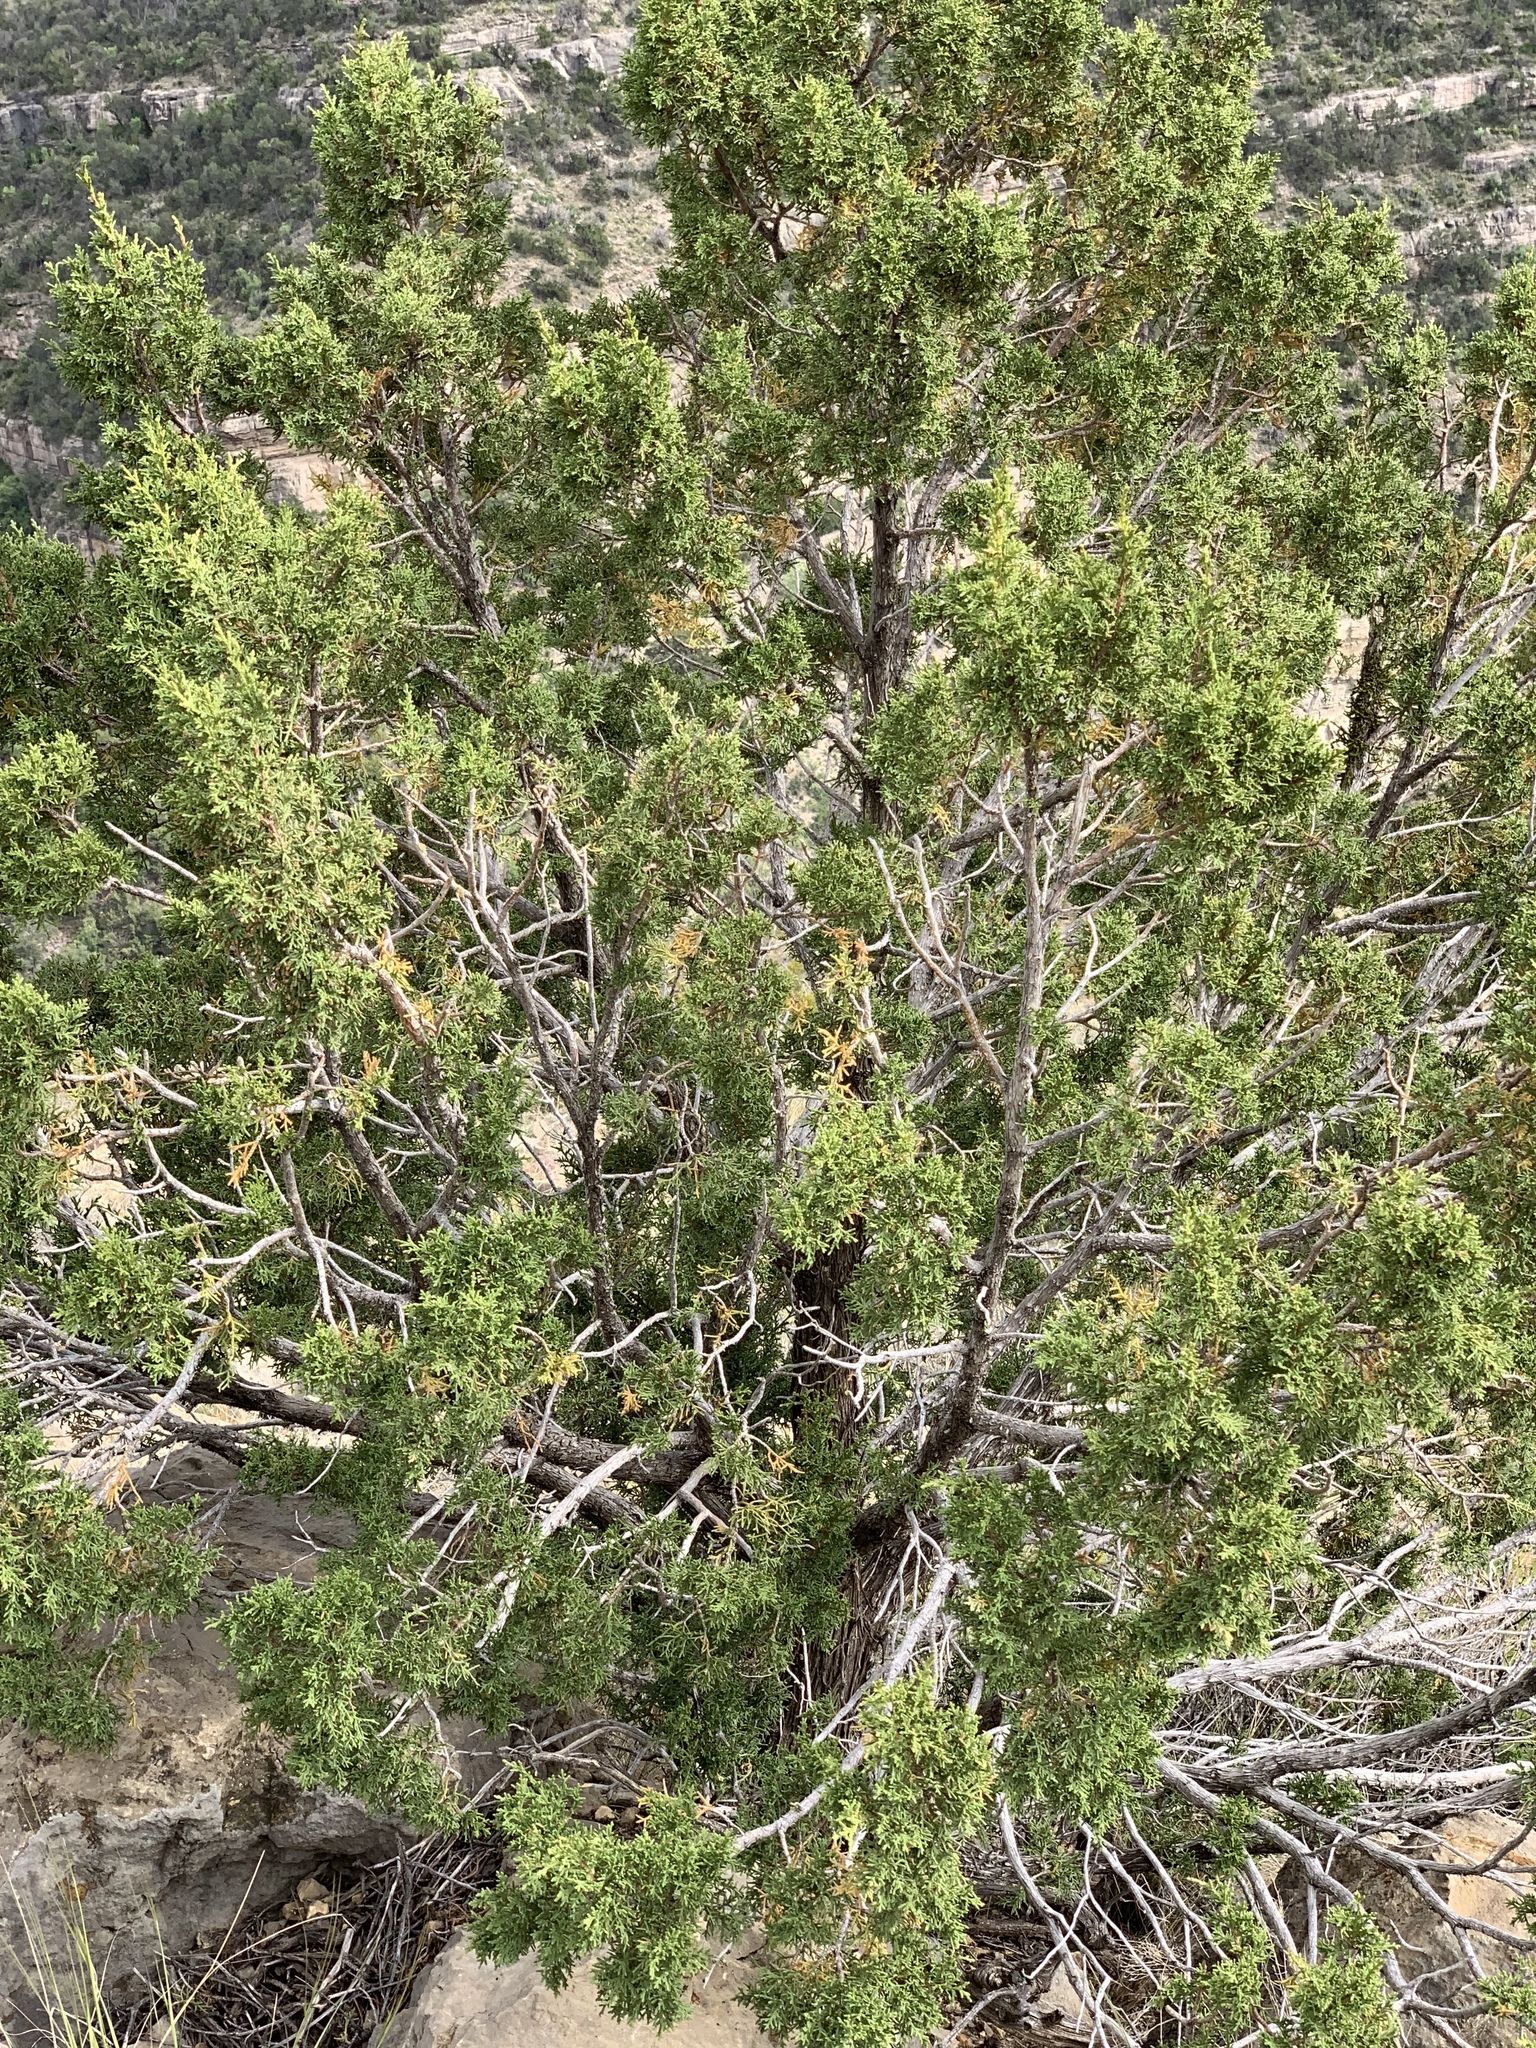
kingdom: Plantae
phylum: Tracheophyta
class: Pinopsida
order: Pinales
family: Cupressaceae
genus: Juniperus
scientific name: Juniperus monosperma
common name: One-seed juniper
